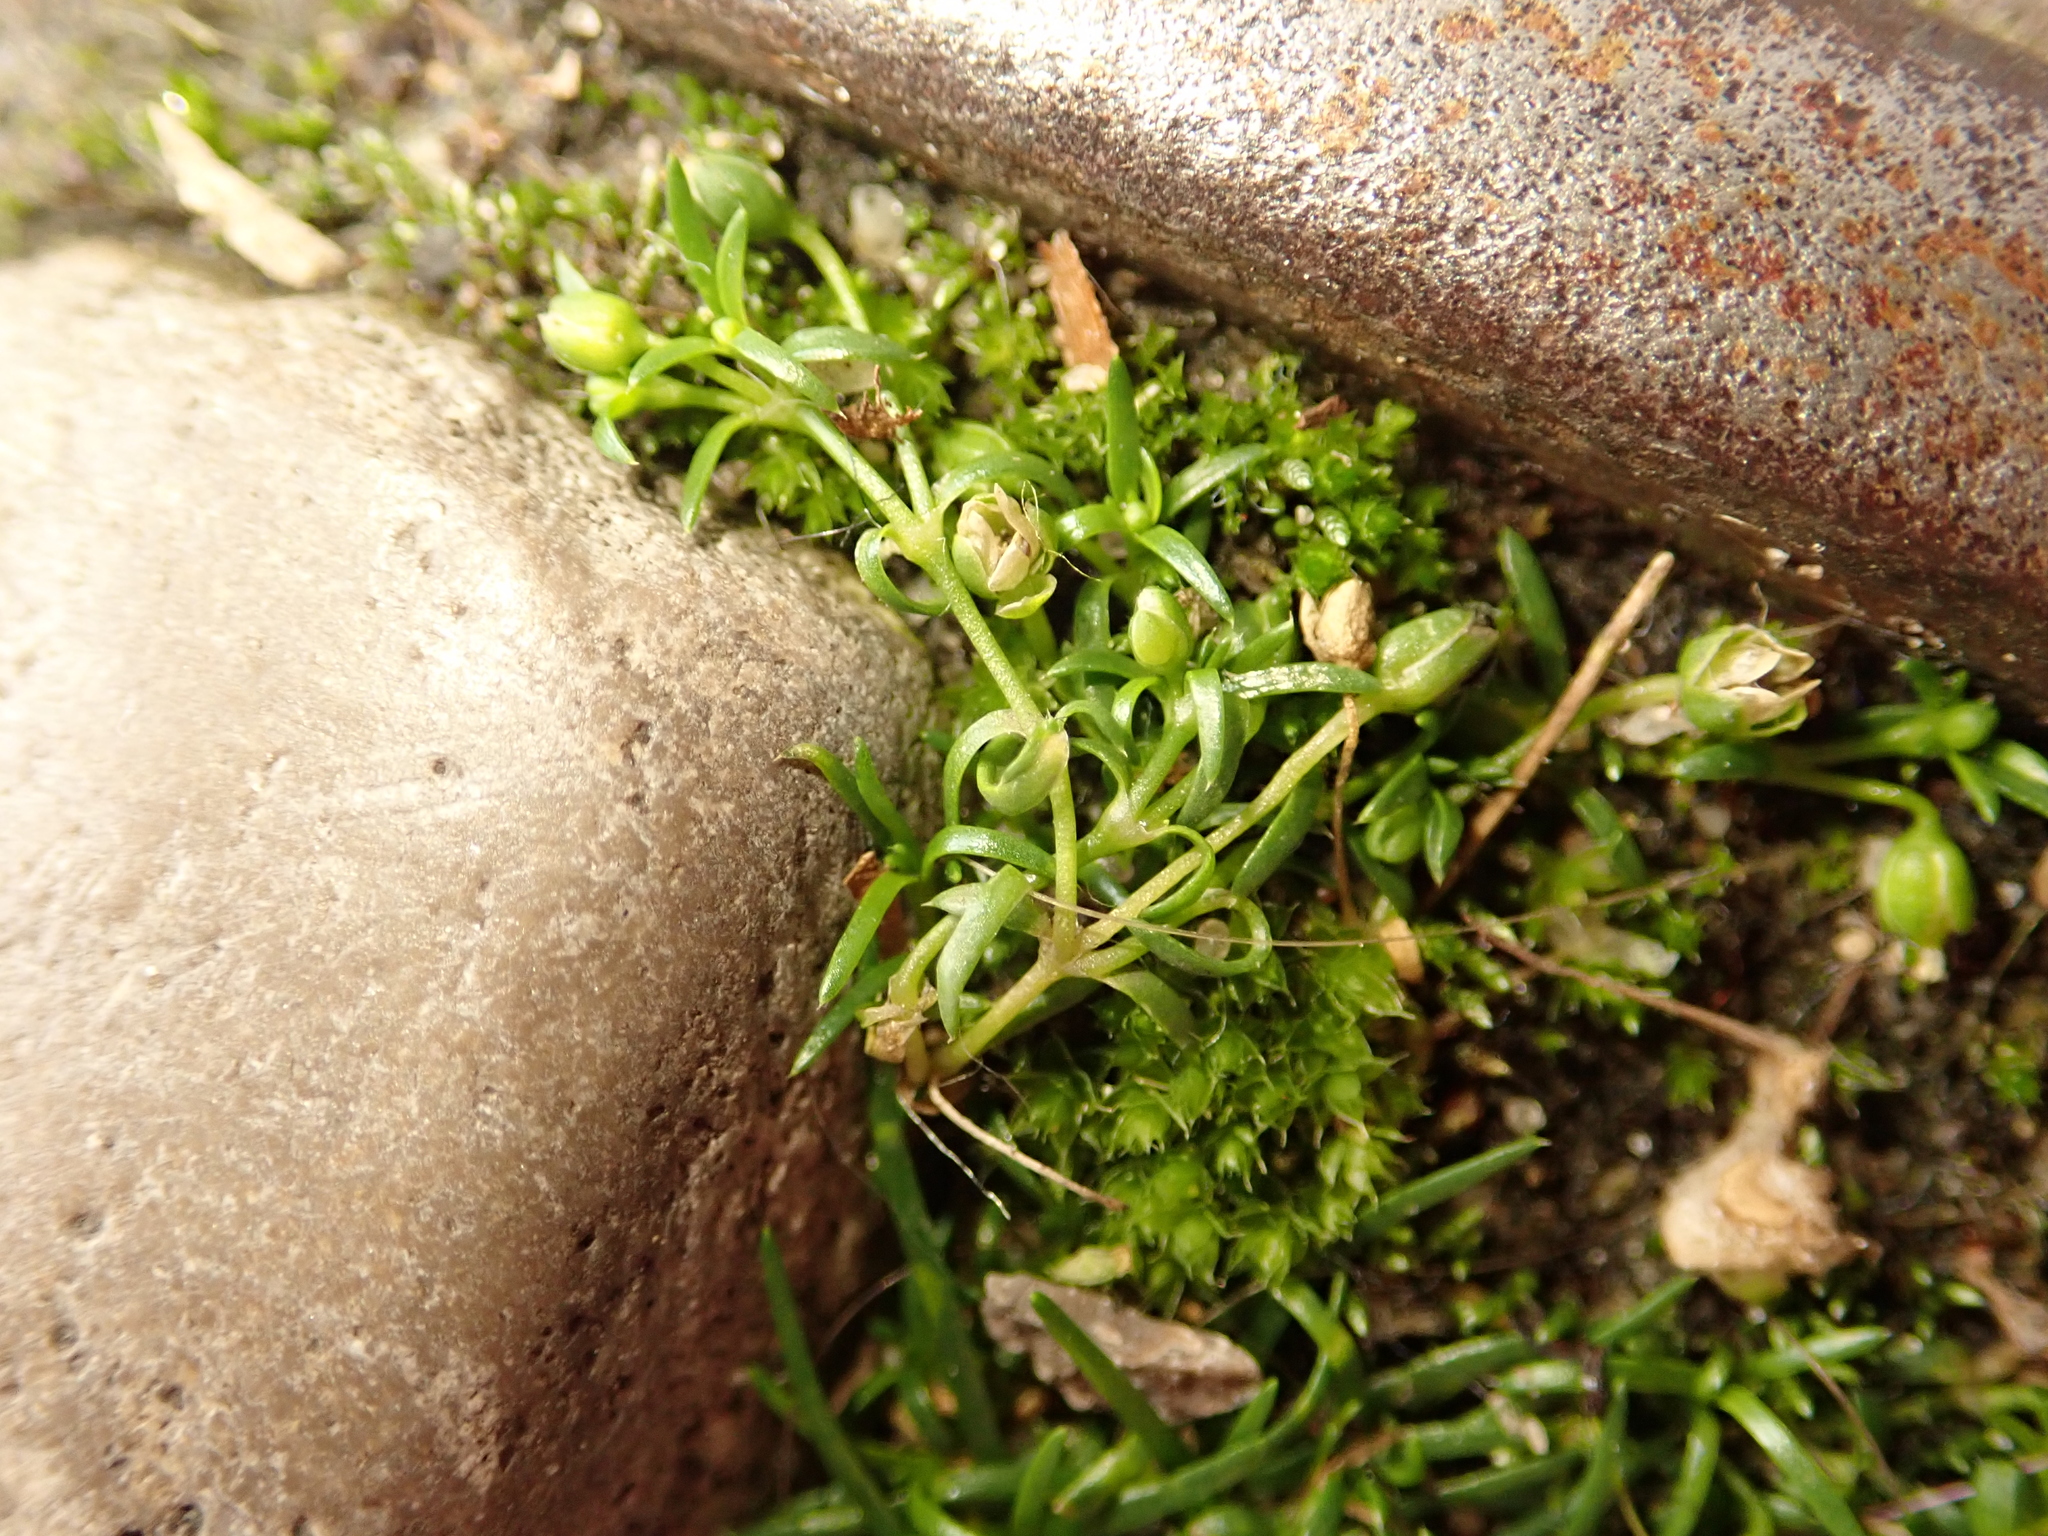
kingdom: Plantae
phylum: Tracheophyta
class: Magnoliopsida
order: Caryophyllales
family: Caryophyllaceae
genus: Sagina
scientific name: Sagina procumbens
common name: Procumbent pearlwort
